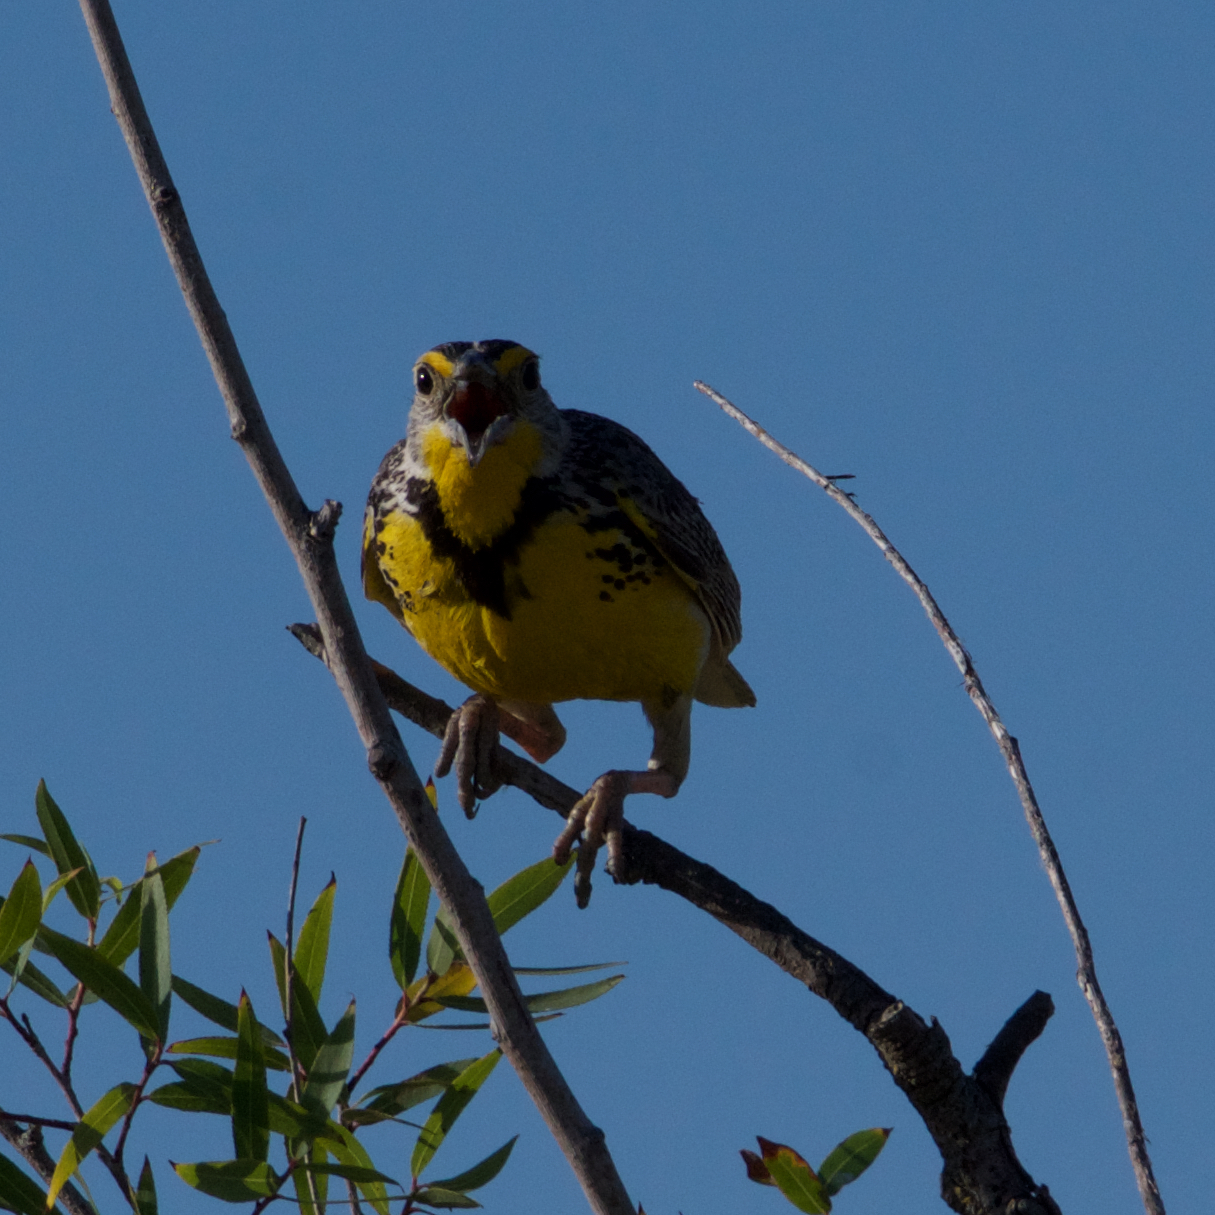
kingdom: Animalia
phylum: Chordata
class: Aves
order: Passeriformes
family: Icteridae
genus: Sturnella
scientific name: Sturnella neglecta
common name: Western meadowlark
